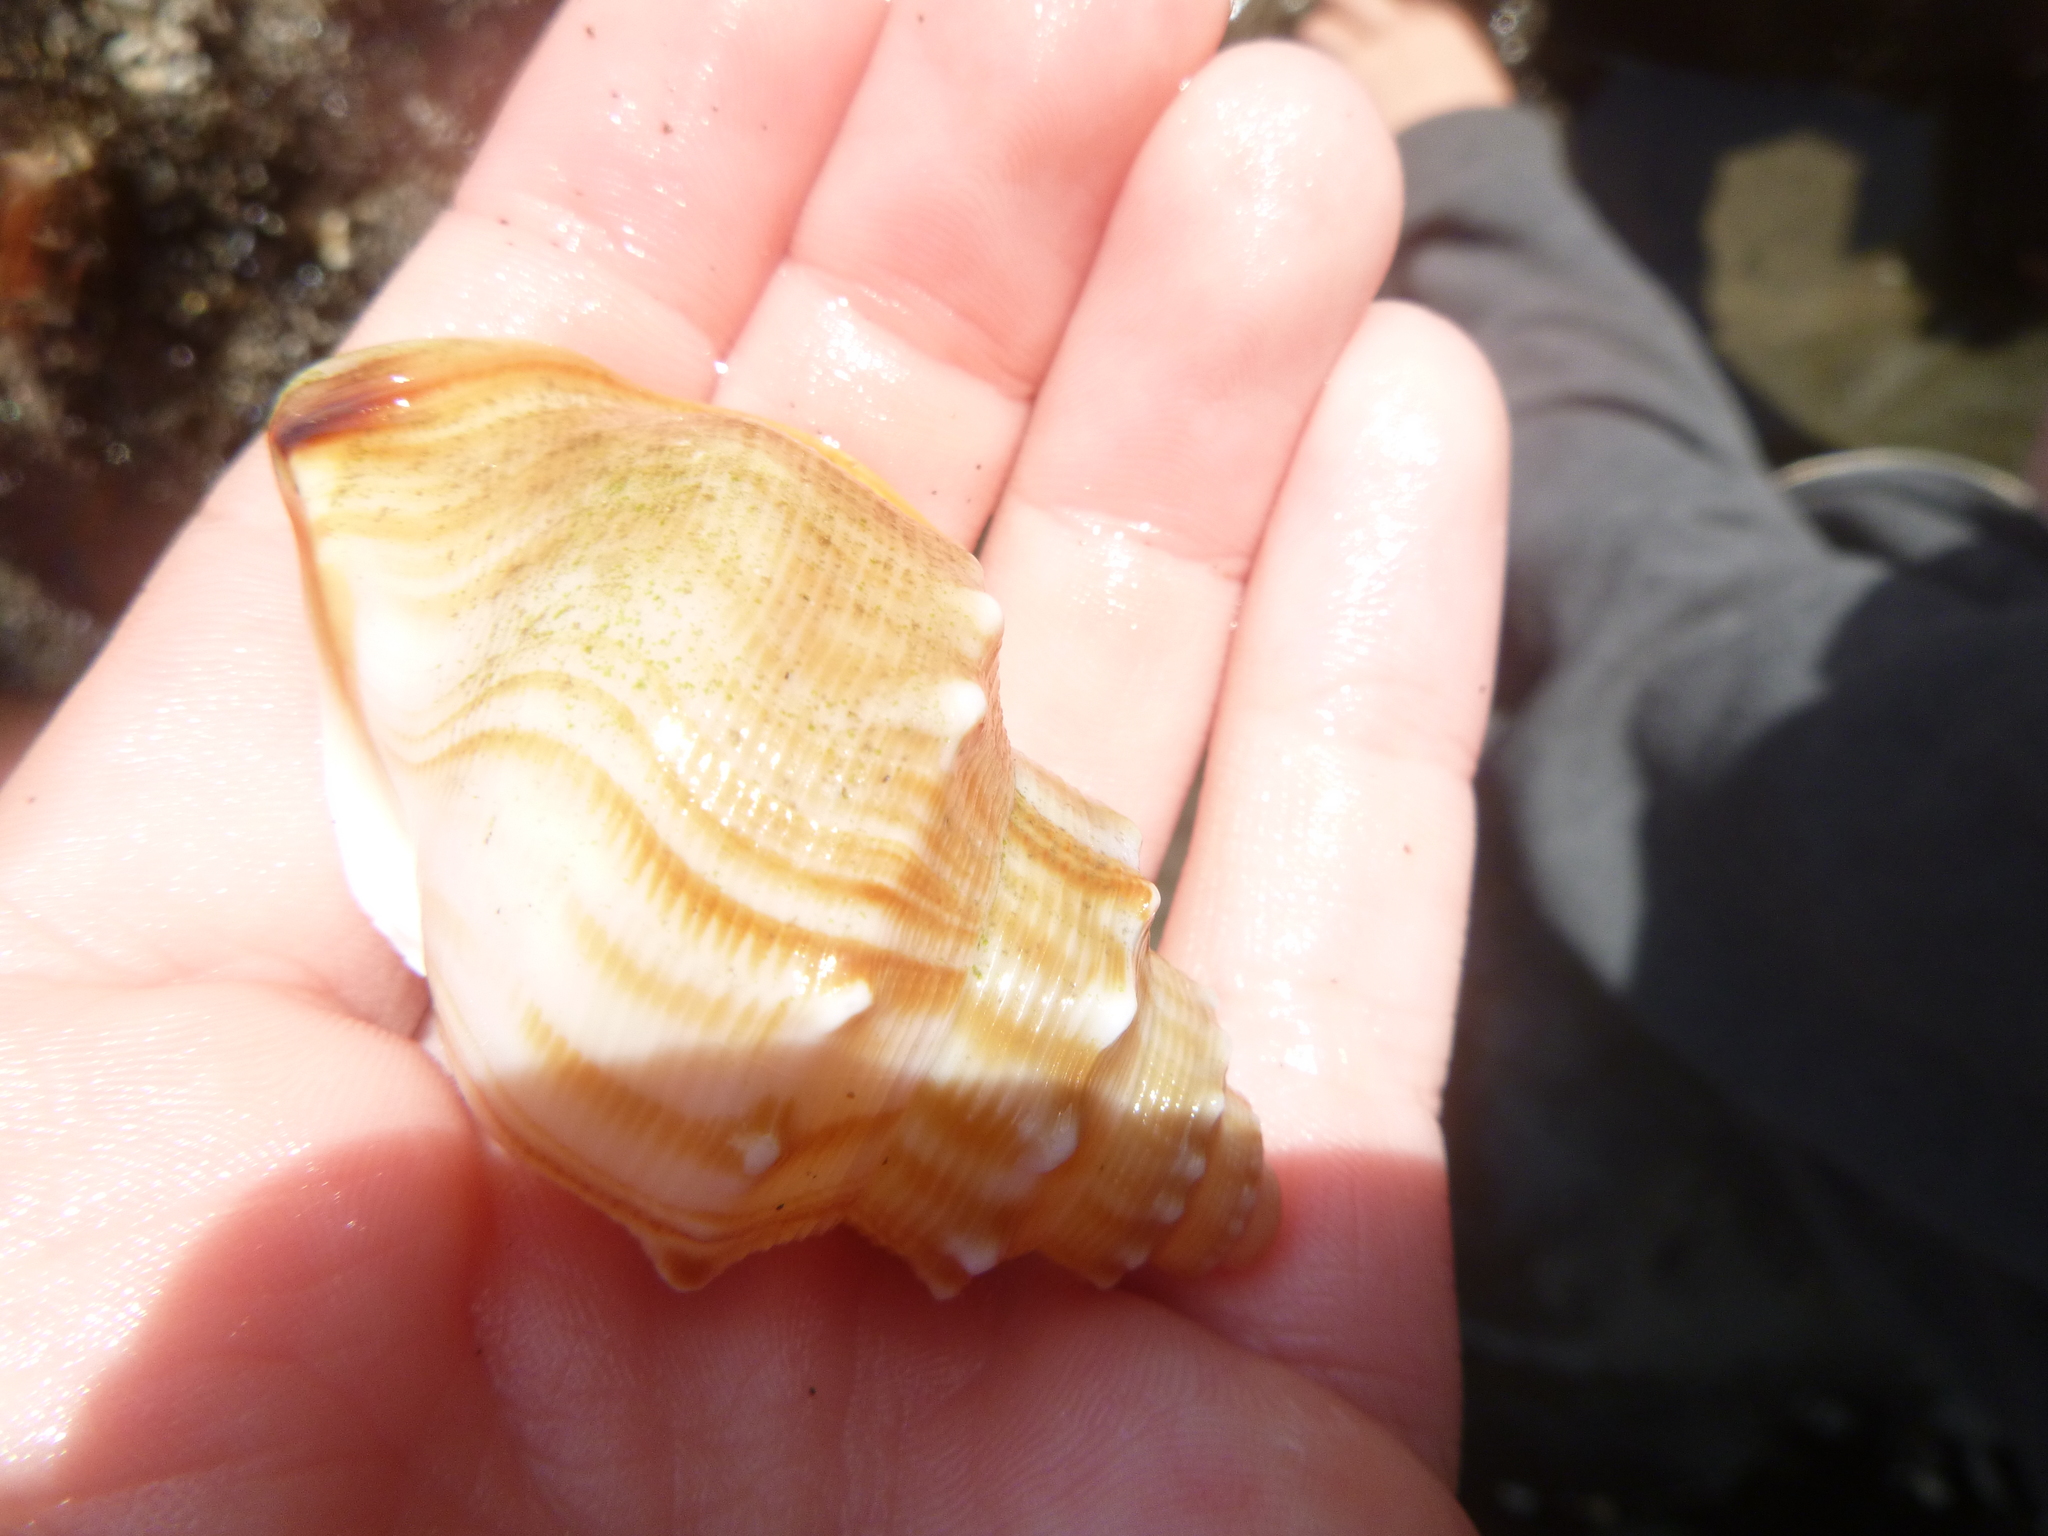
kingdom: Animalia
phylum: Mollusca
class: Gastropoda
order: Littorinimorpha
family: Struthiolariidae
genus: Struthiolaria
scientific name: Struthiolaria papulosa
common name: Large ostrich foot
